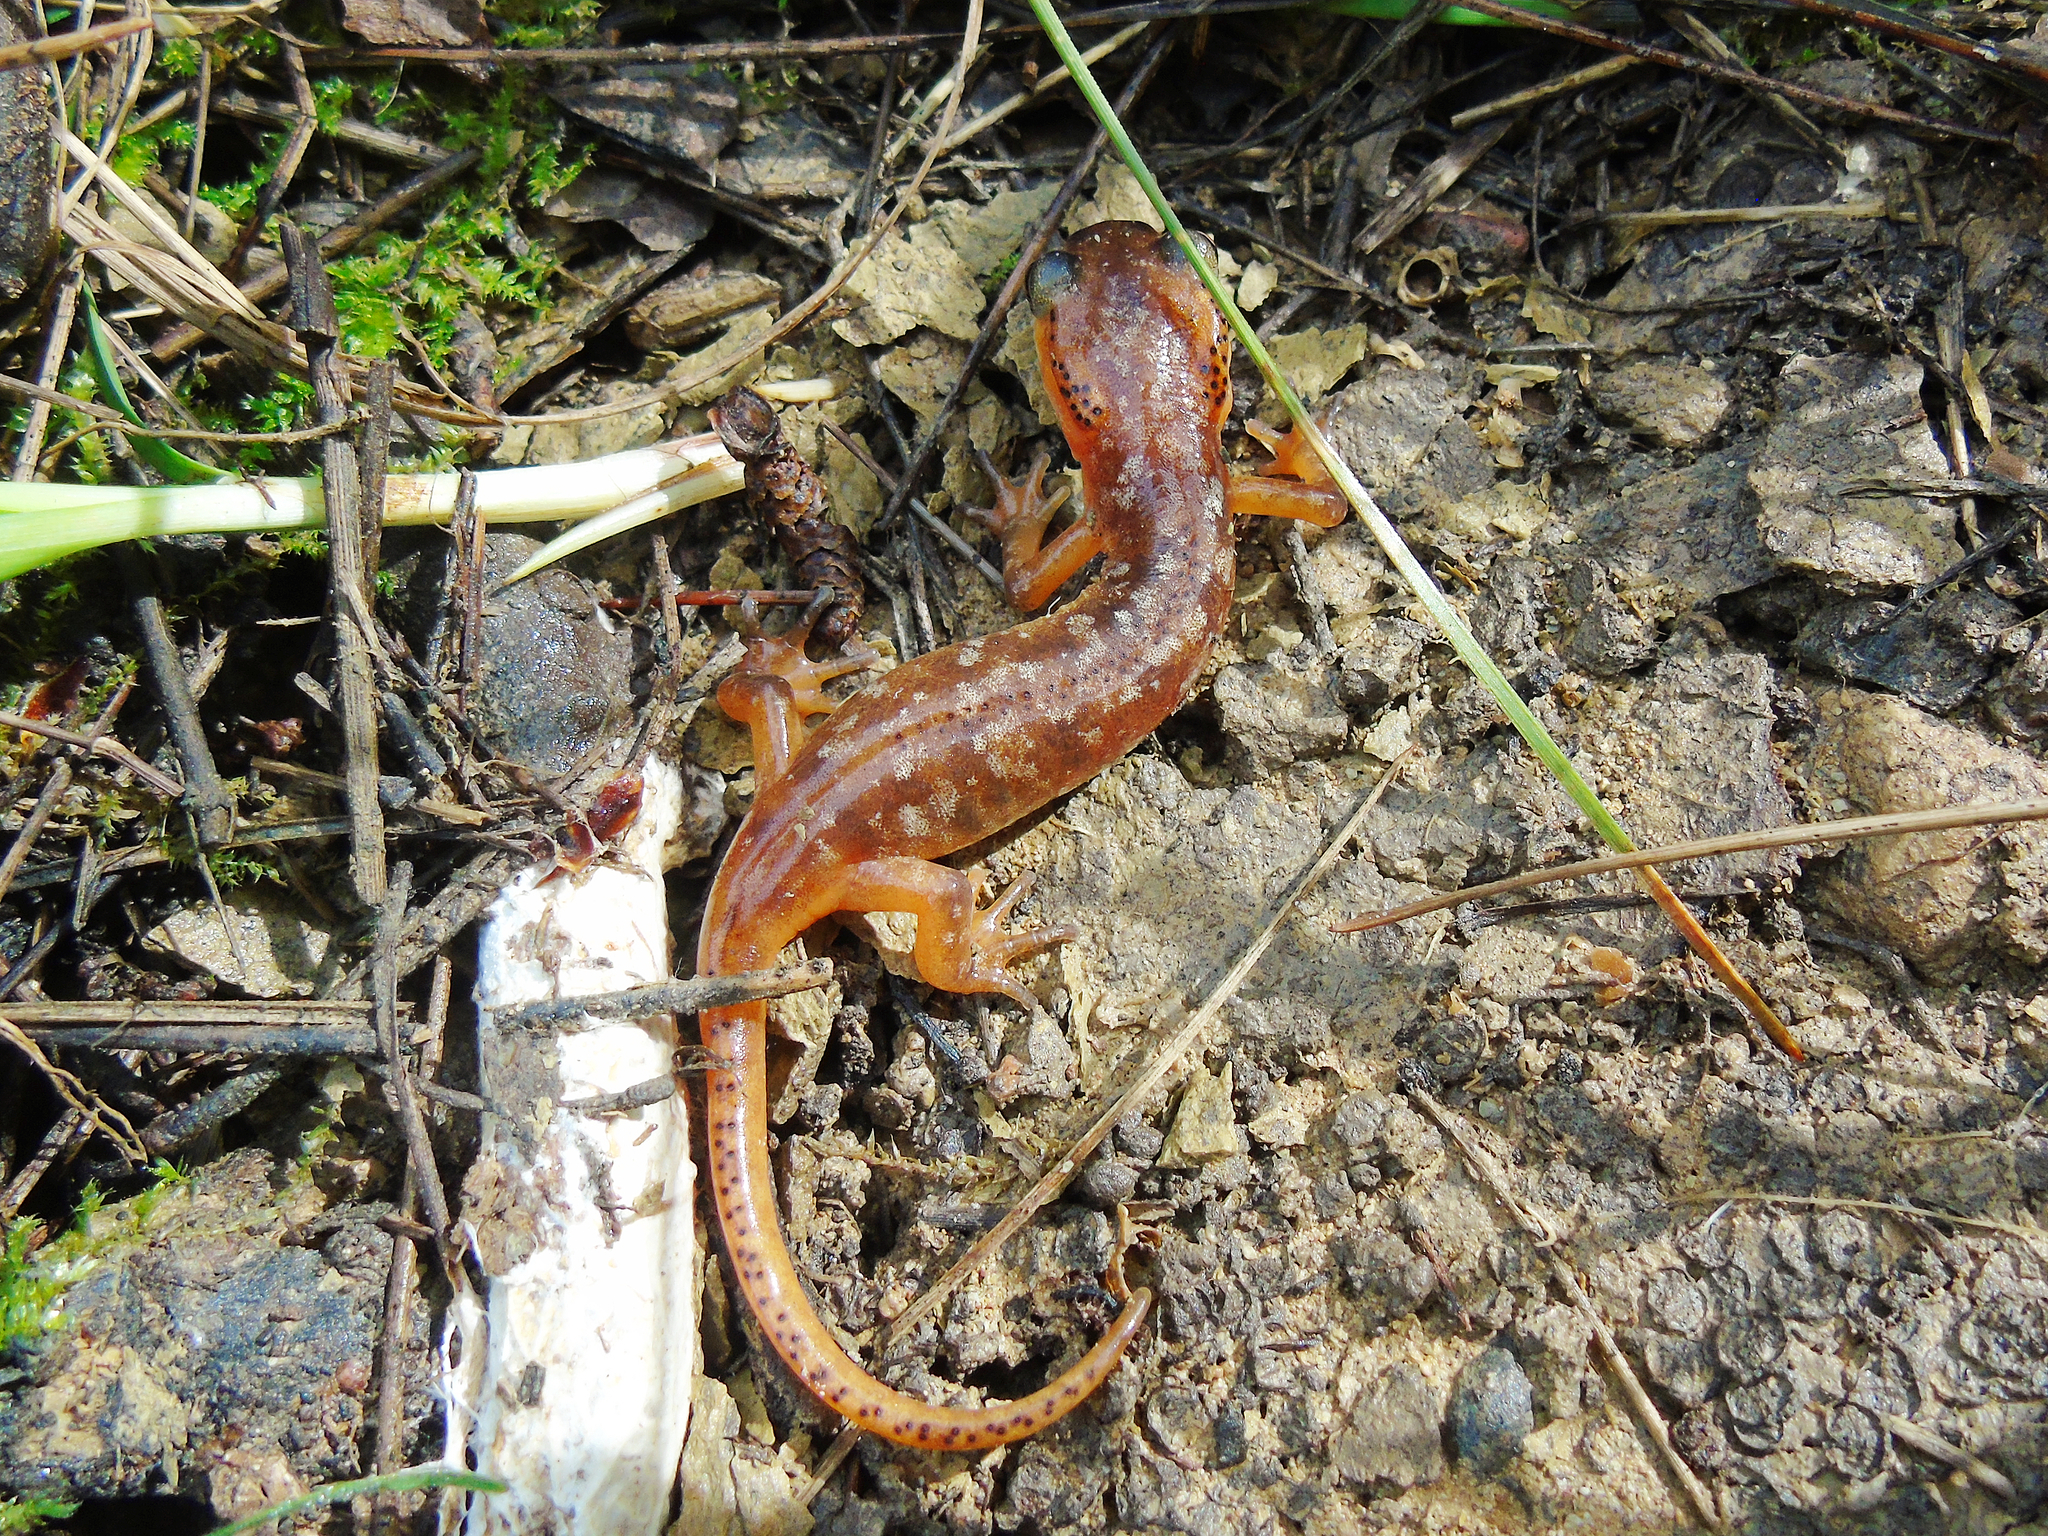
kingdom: Animalia
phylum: Chordata
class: Amphibia
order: Caudata
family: Salamandridae
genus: Lyciasalamandra
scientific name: Lyciasalamandra billae
